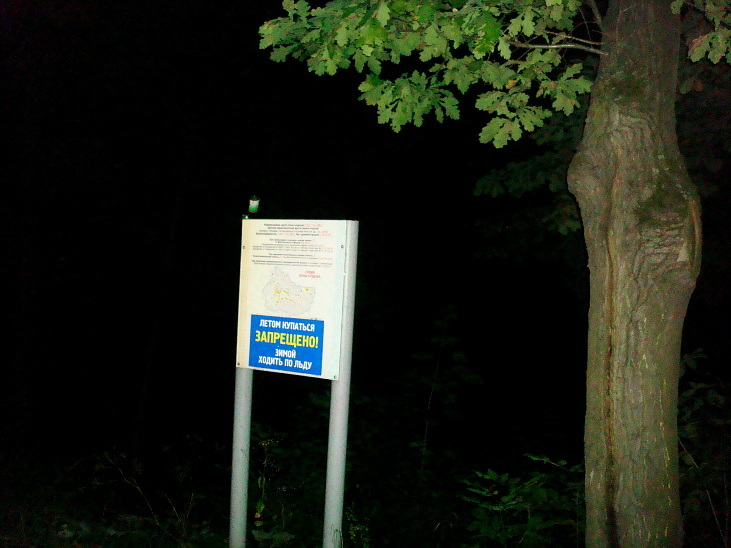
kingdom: Plantae
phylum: Tracheophyta
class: Magnoliopsida
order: Fagales
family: Fagaceae
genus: Quercus
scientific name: Quercus robur
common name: Pedunculate oak
